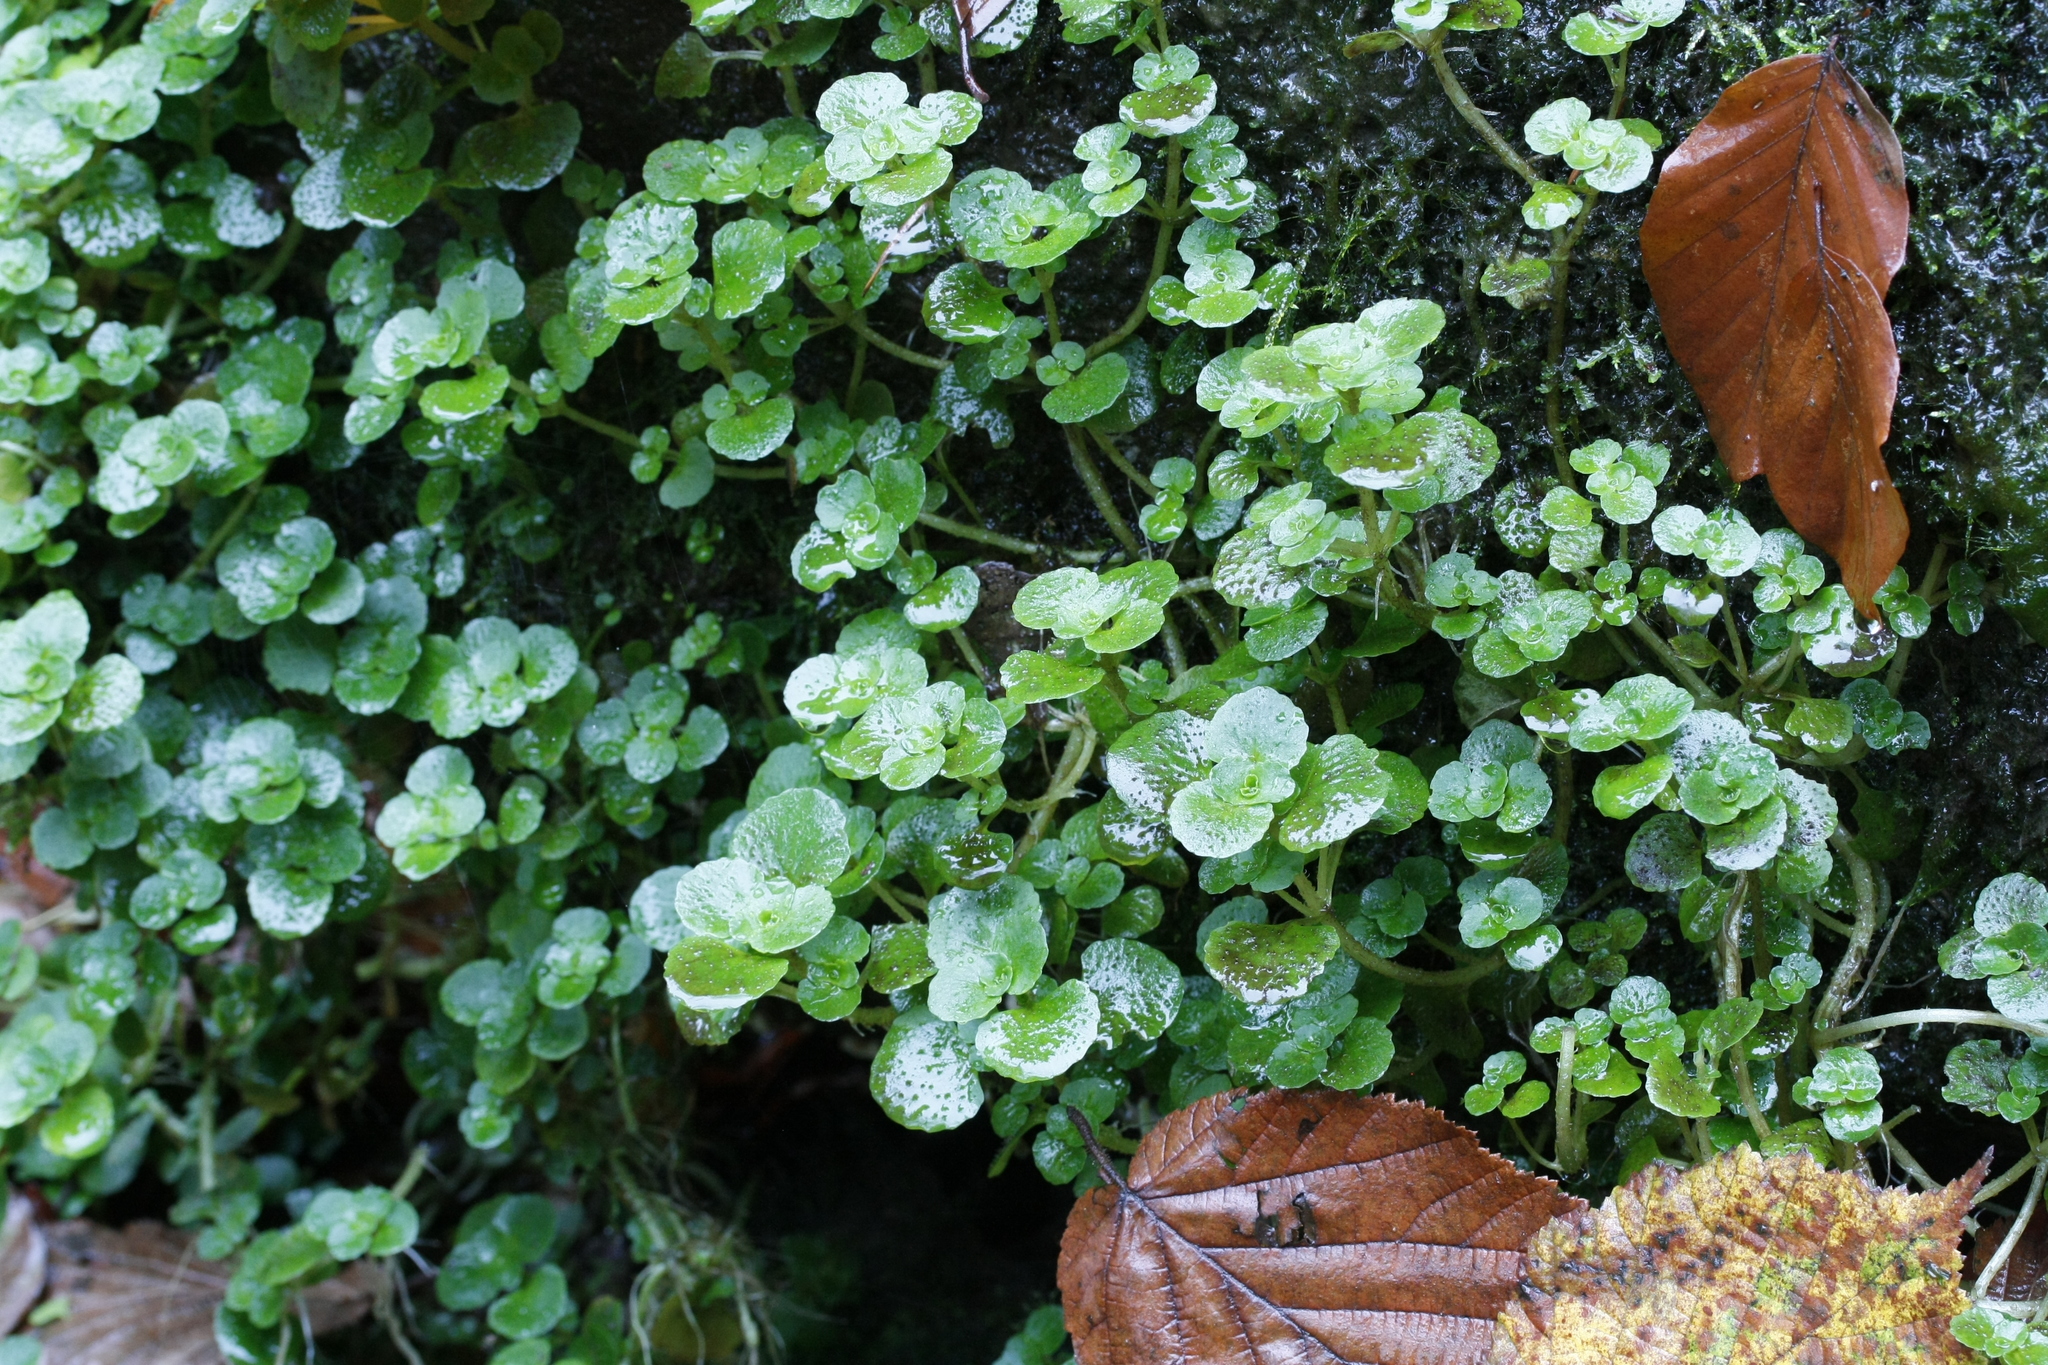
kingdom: Plantae
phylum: Tracheophyta
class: Magnoliopsida
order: Saxifragales
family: Saxifragaceae
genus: Chrysosplenium
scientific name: Chrysosplenium oppositifolium
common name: Opposite-leaved golden-saxifrage
